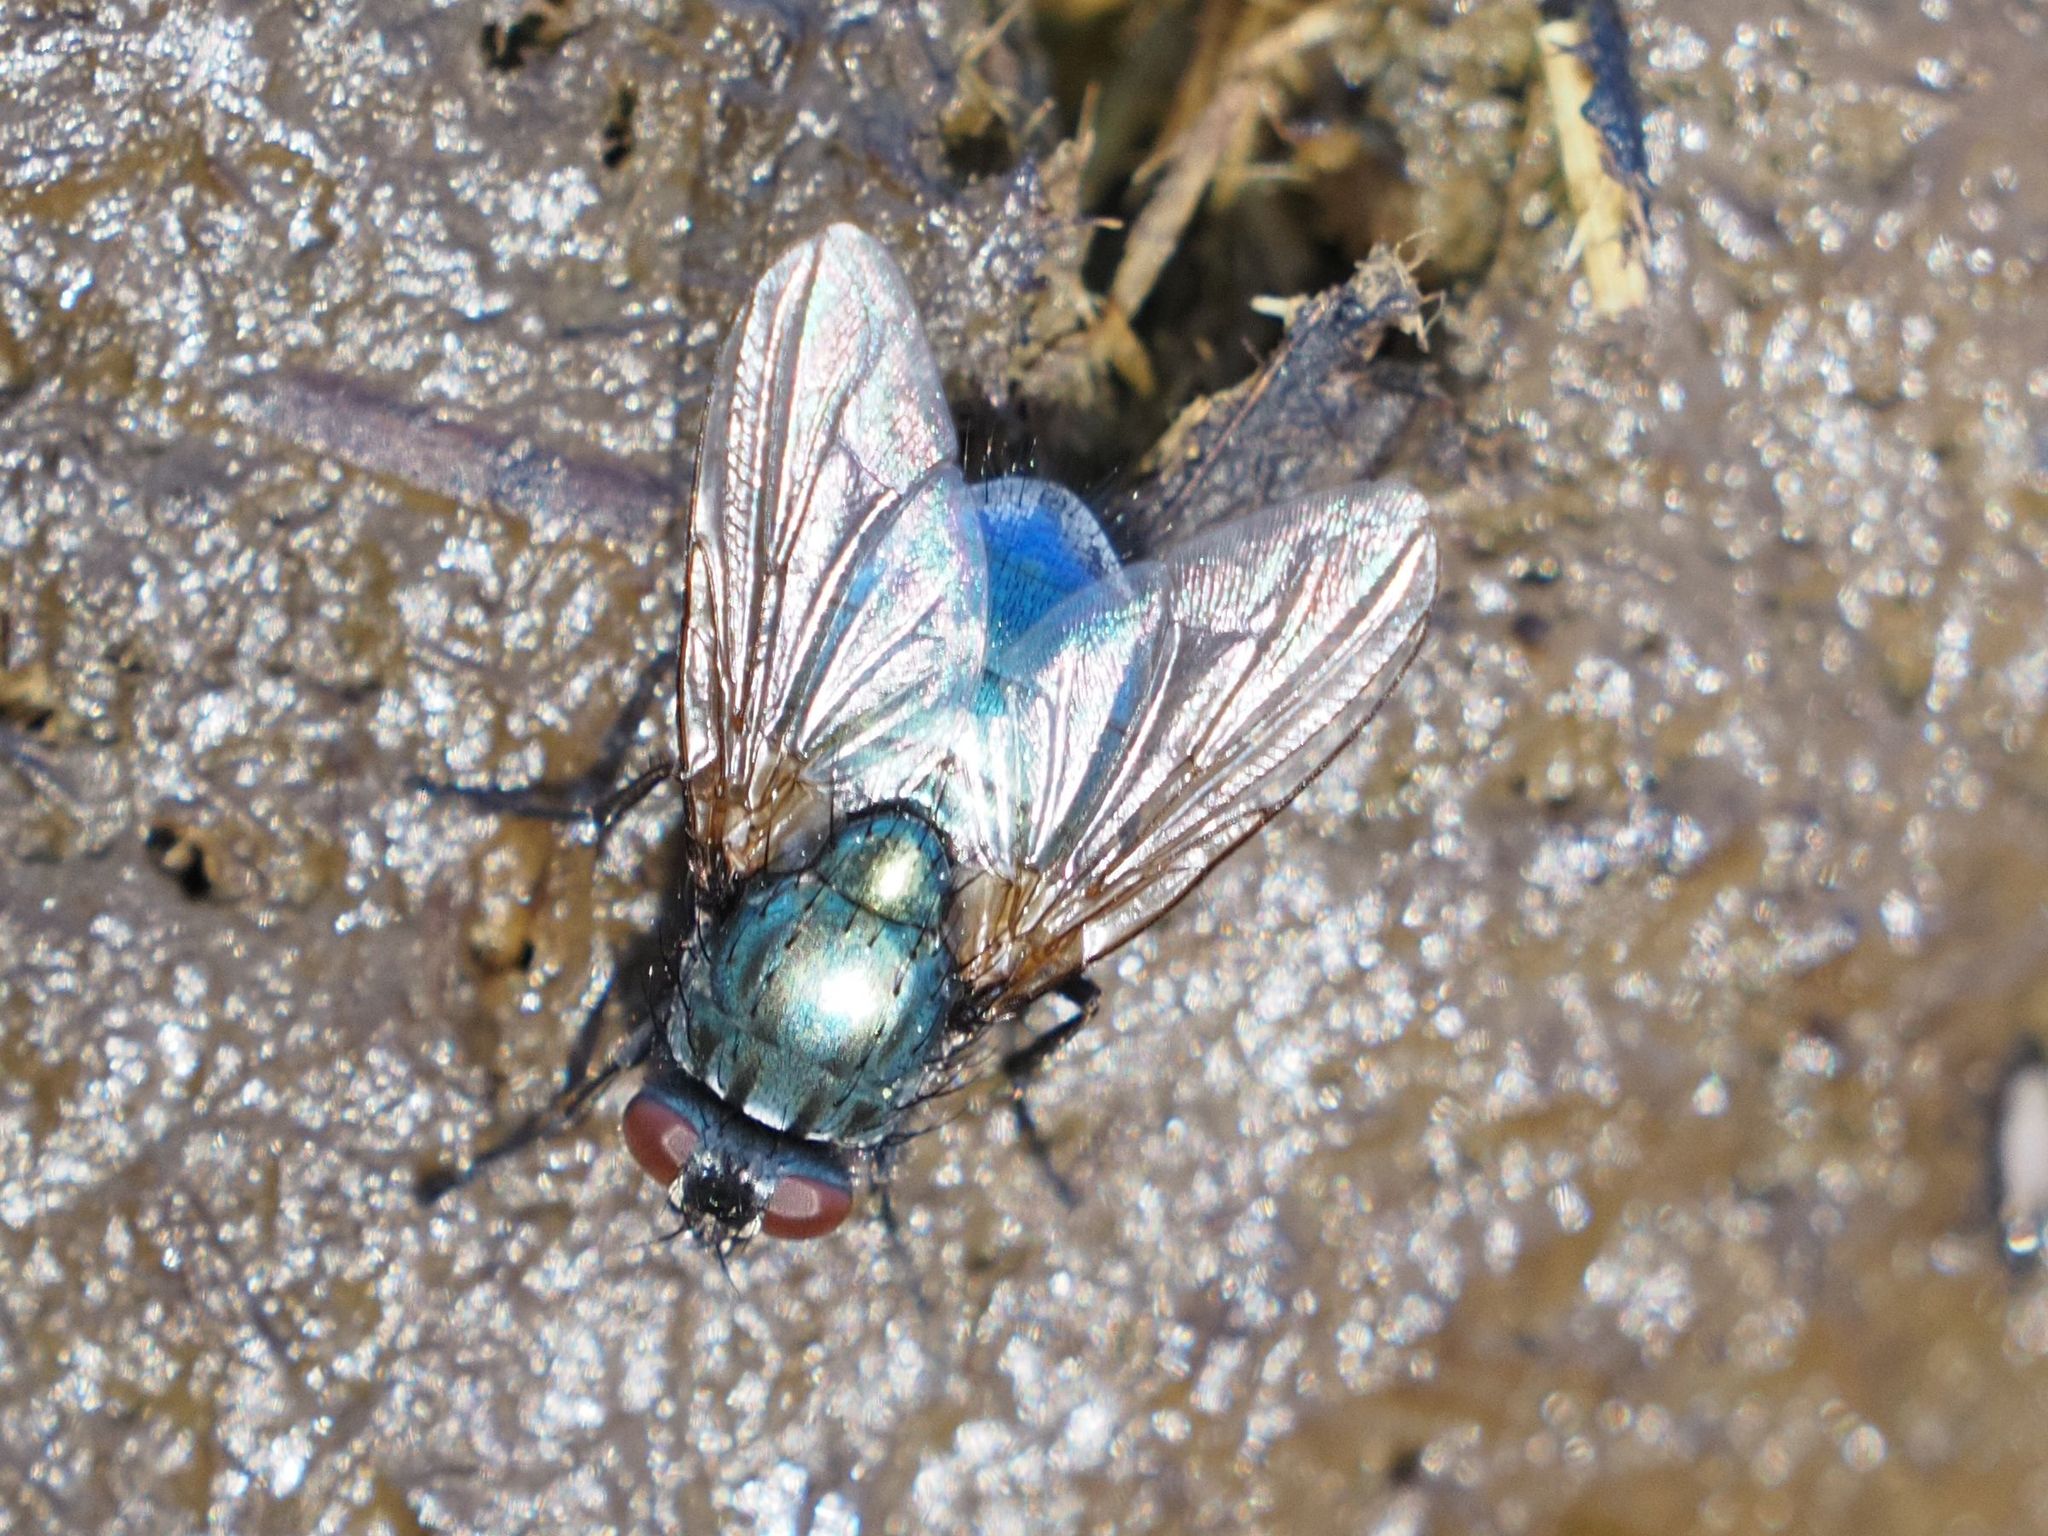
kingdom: Animalia
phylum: Arthropoda
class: Insecta
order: Diptera
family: Muscidae
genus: Dasyphora
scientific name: Dasyphora zimini
